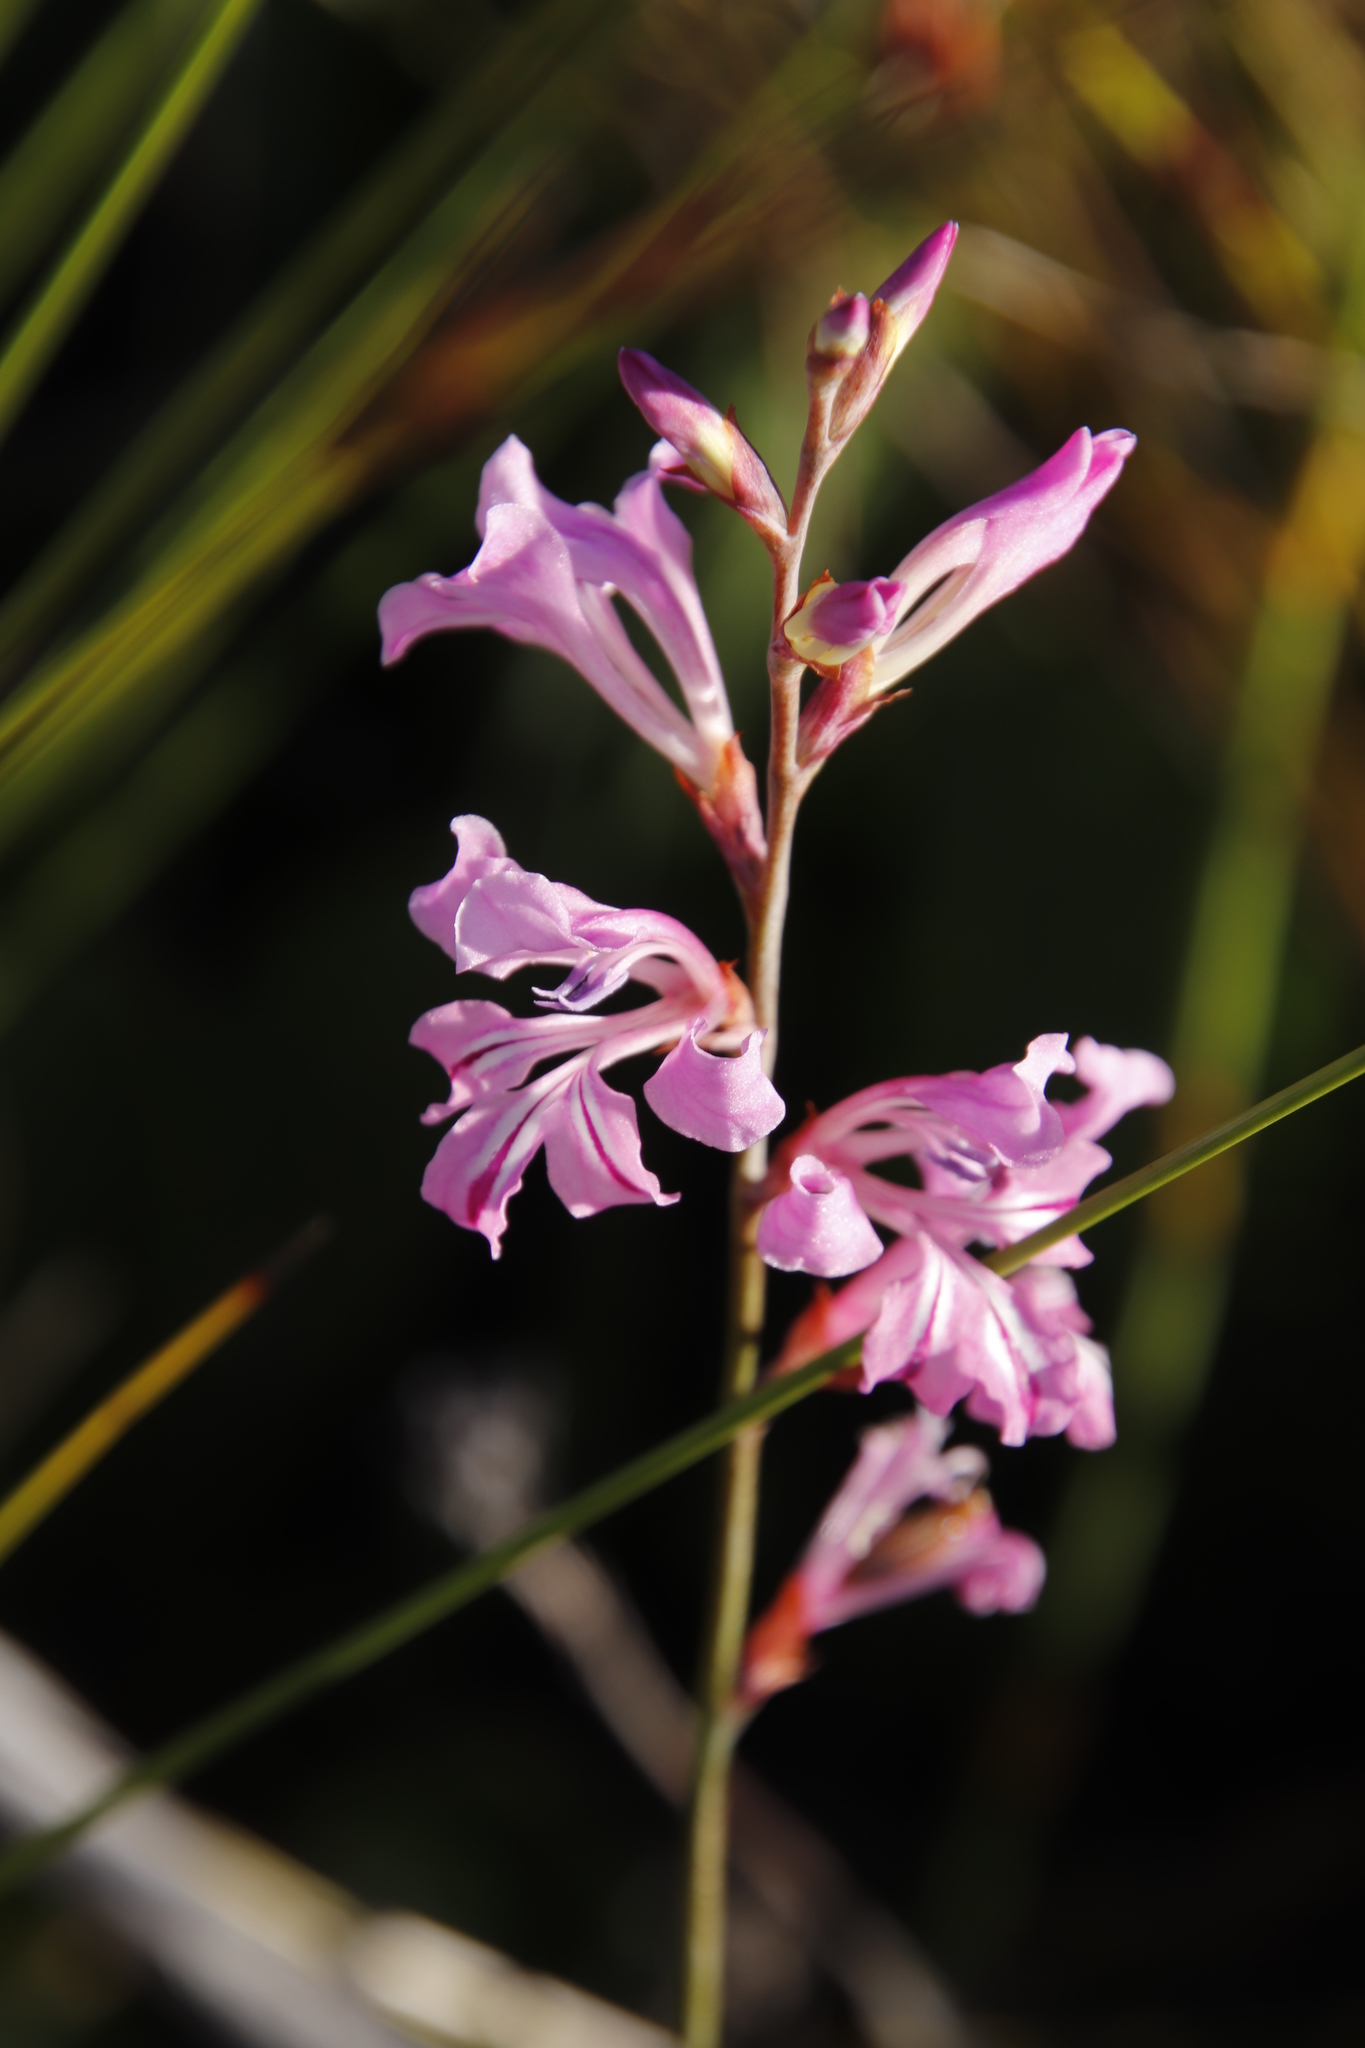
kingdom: Plantae
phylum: Tracheophyta
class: Liliopsida
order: Asparagales
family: Iridaceae
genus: Tritoniopsis
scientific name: Tritoniopsis lata
